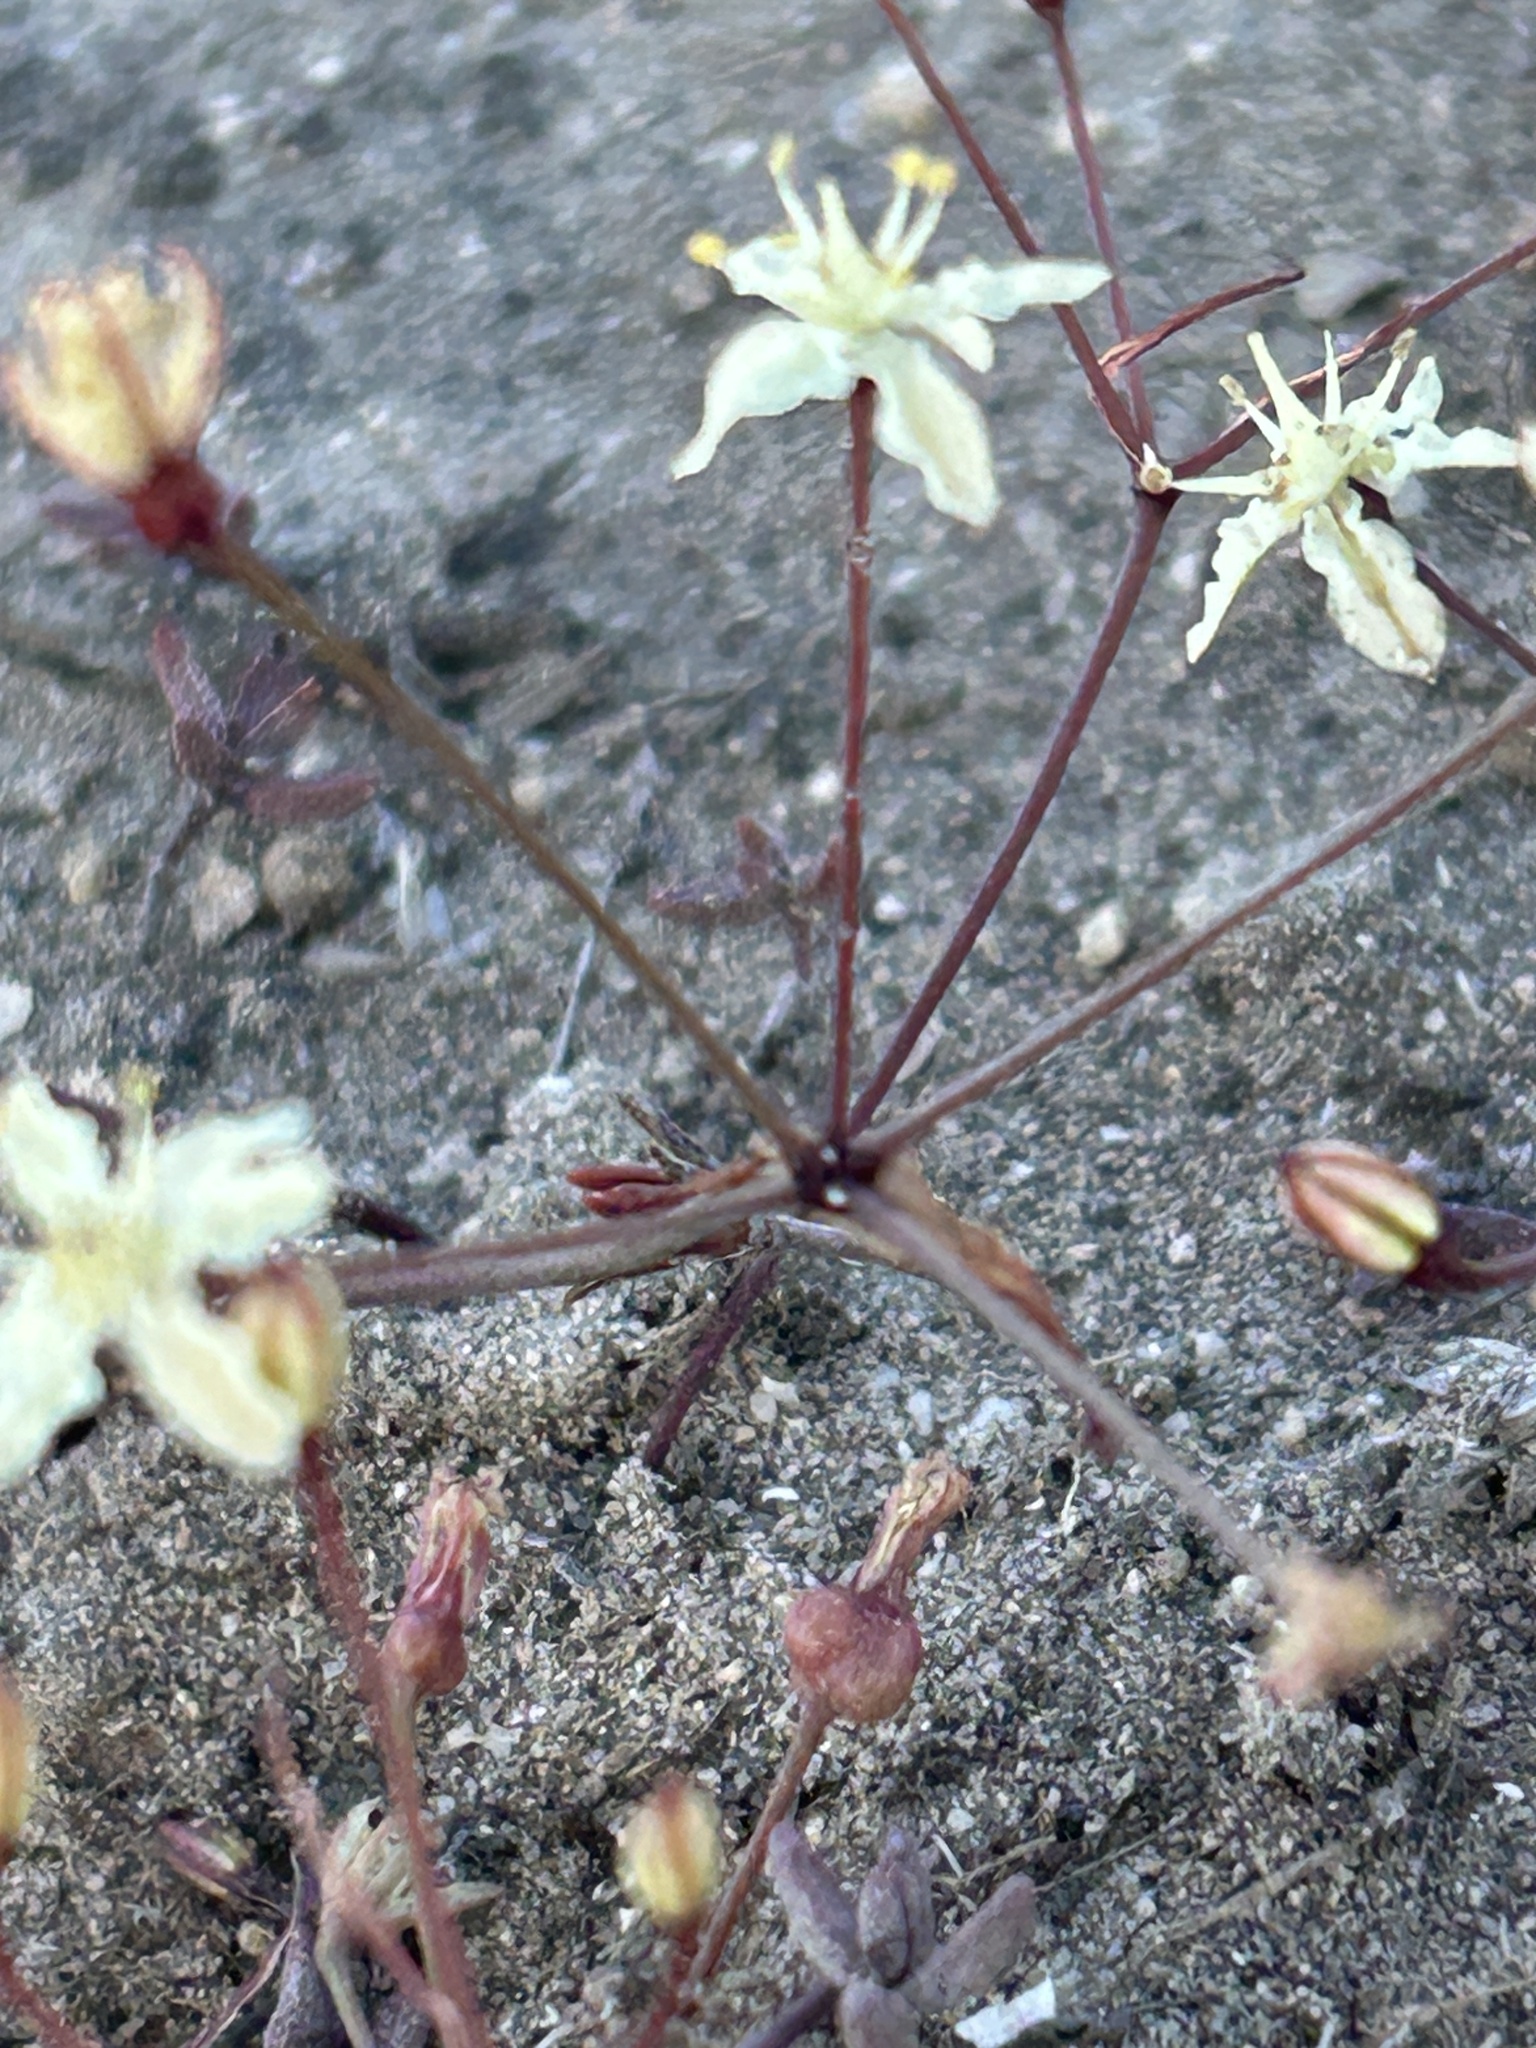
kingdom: Plantae
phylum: Tracheophyta
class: Liliopsida
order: Asparagales
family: Amaryllidaceae
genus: Strumaria
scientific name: Strumaria gemmata
